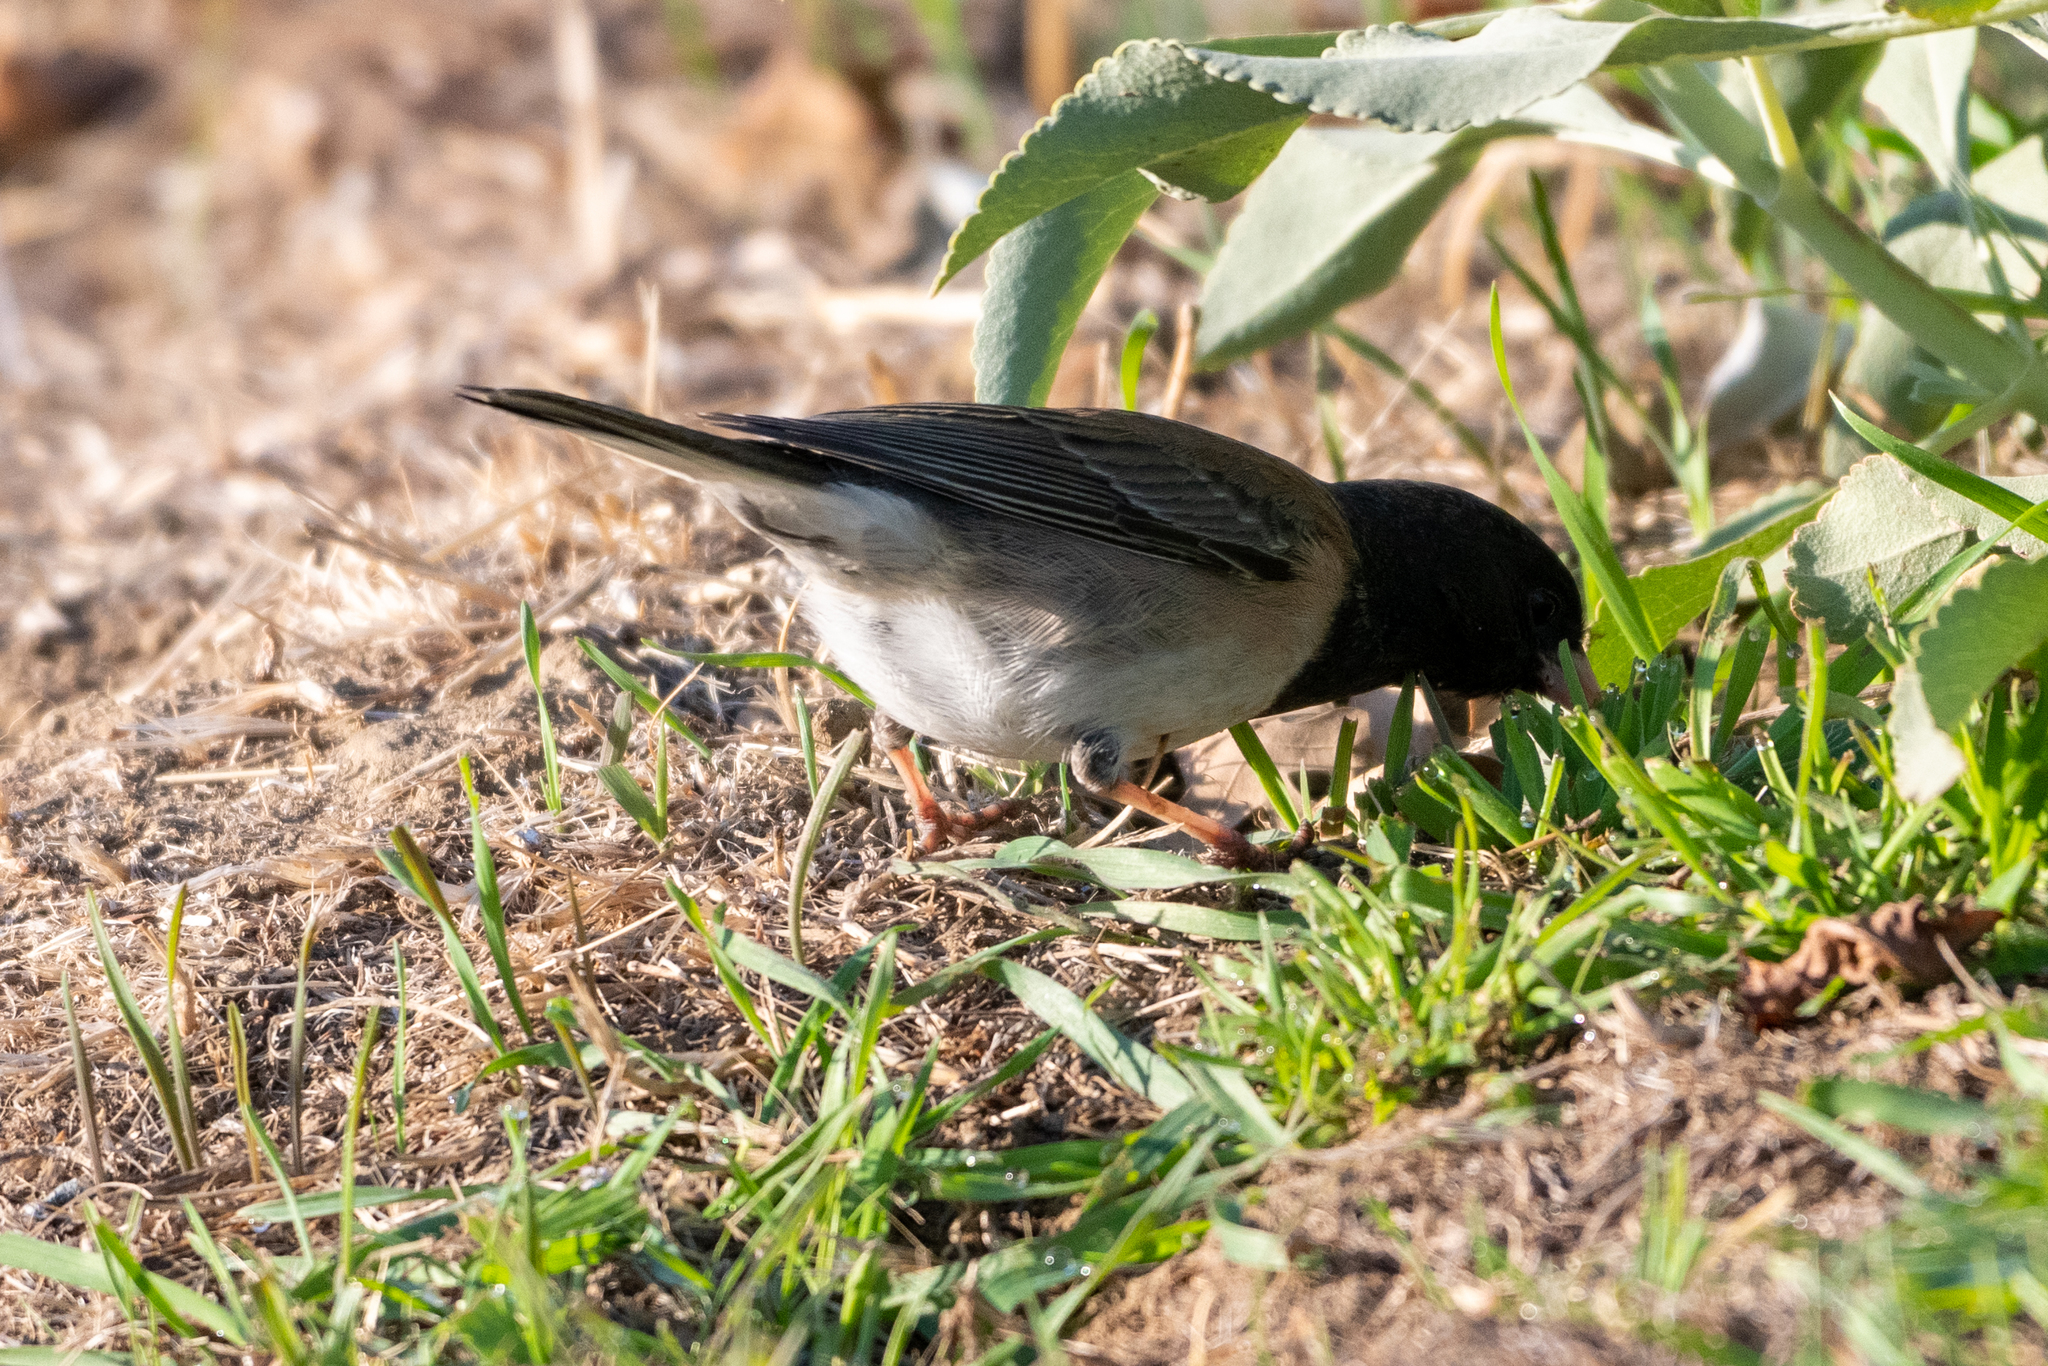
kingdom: Animalia
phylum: Chordata
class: Aves
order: Passeriformes
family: Passerellidae
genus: Junco
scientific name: Junco hyemalis
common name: Dark-eyed junco
